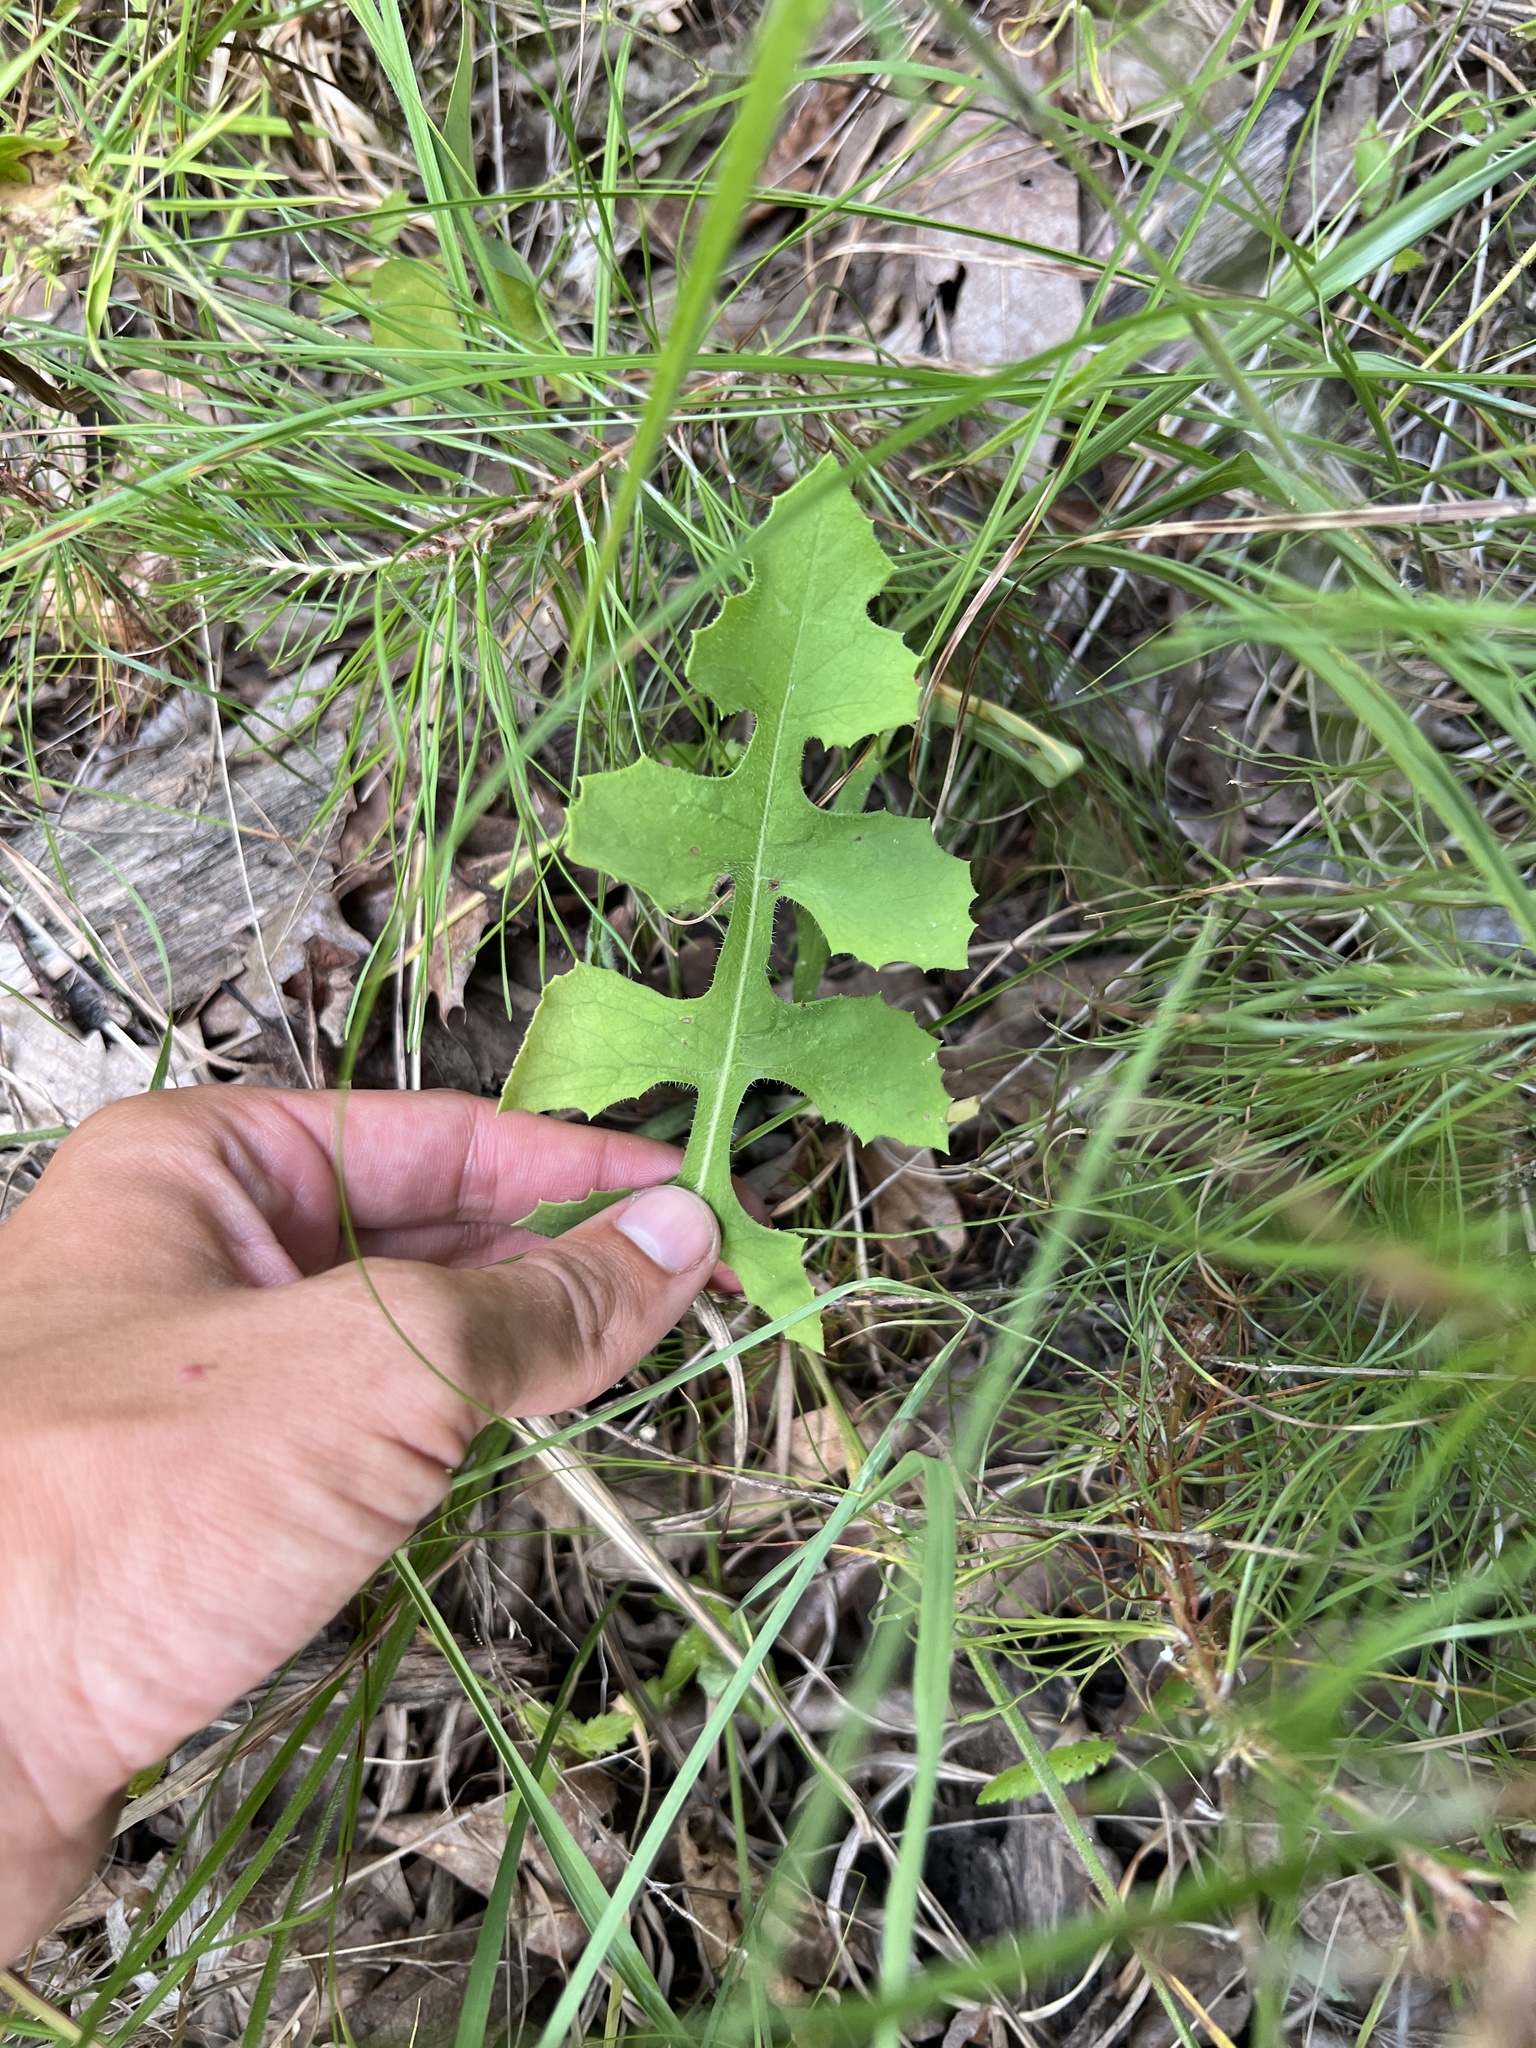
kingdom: Plantae
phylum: Tracheophyta
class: Magnoliopsida
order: Asterales
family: Asteraceae
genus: Lactuca
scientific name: Lactuca hirsuta
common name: Hairy lettuce
